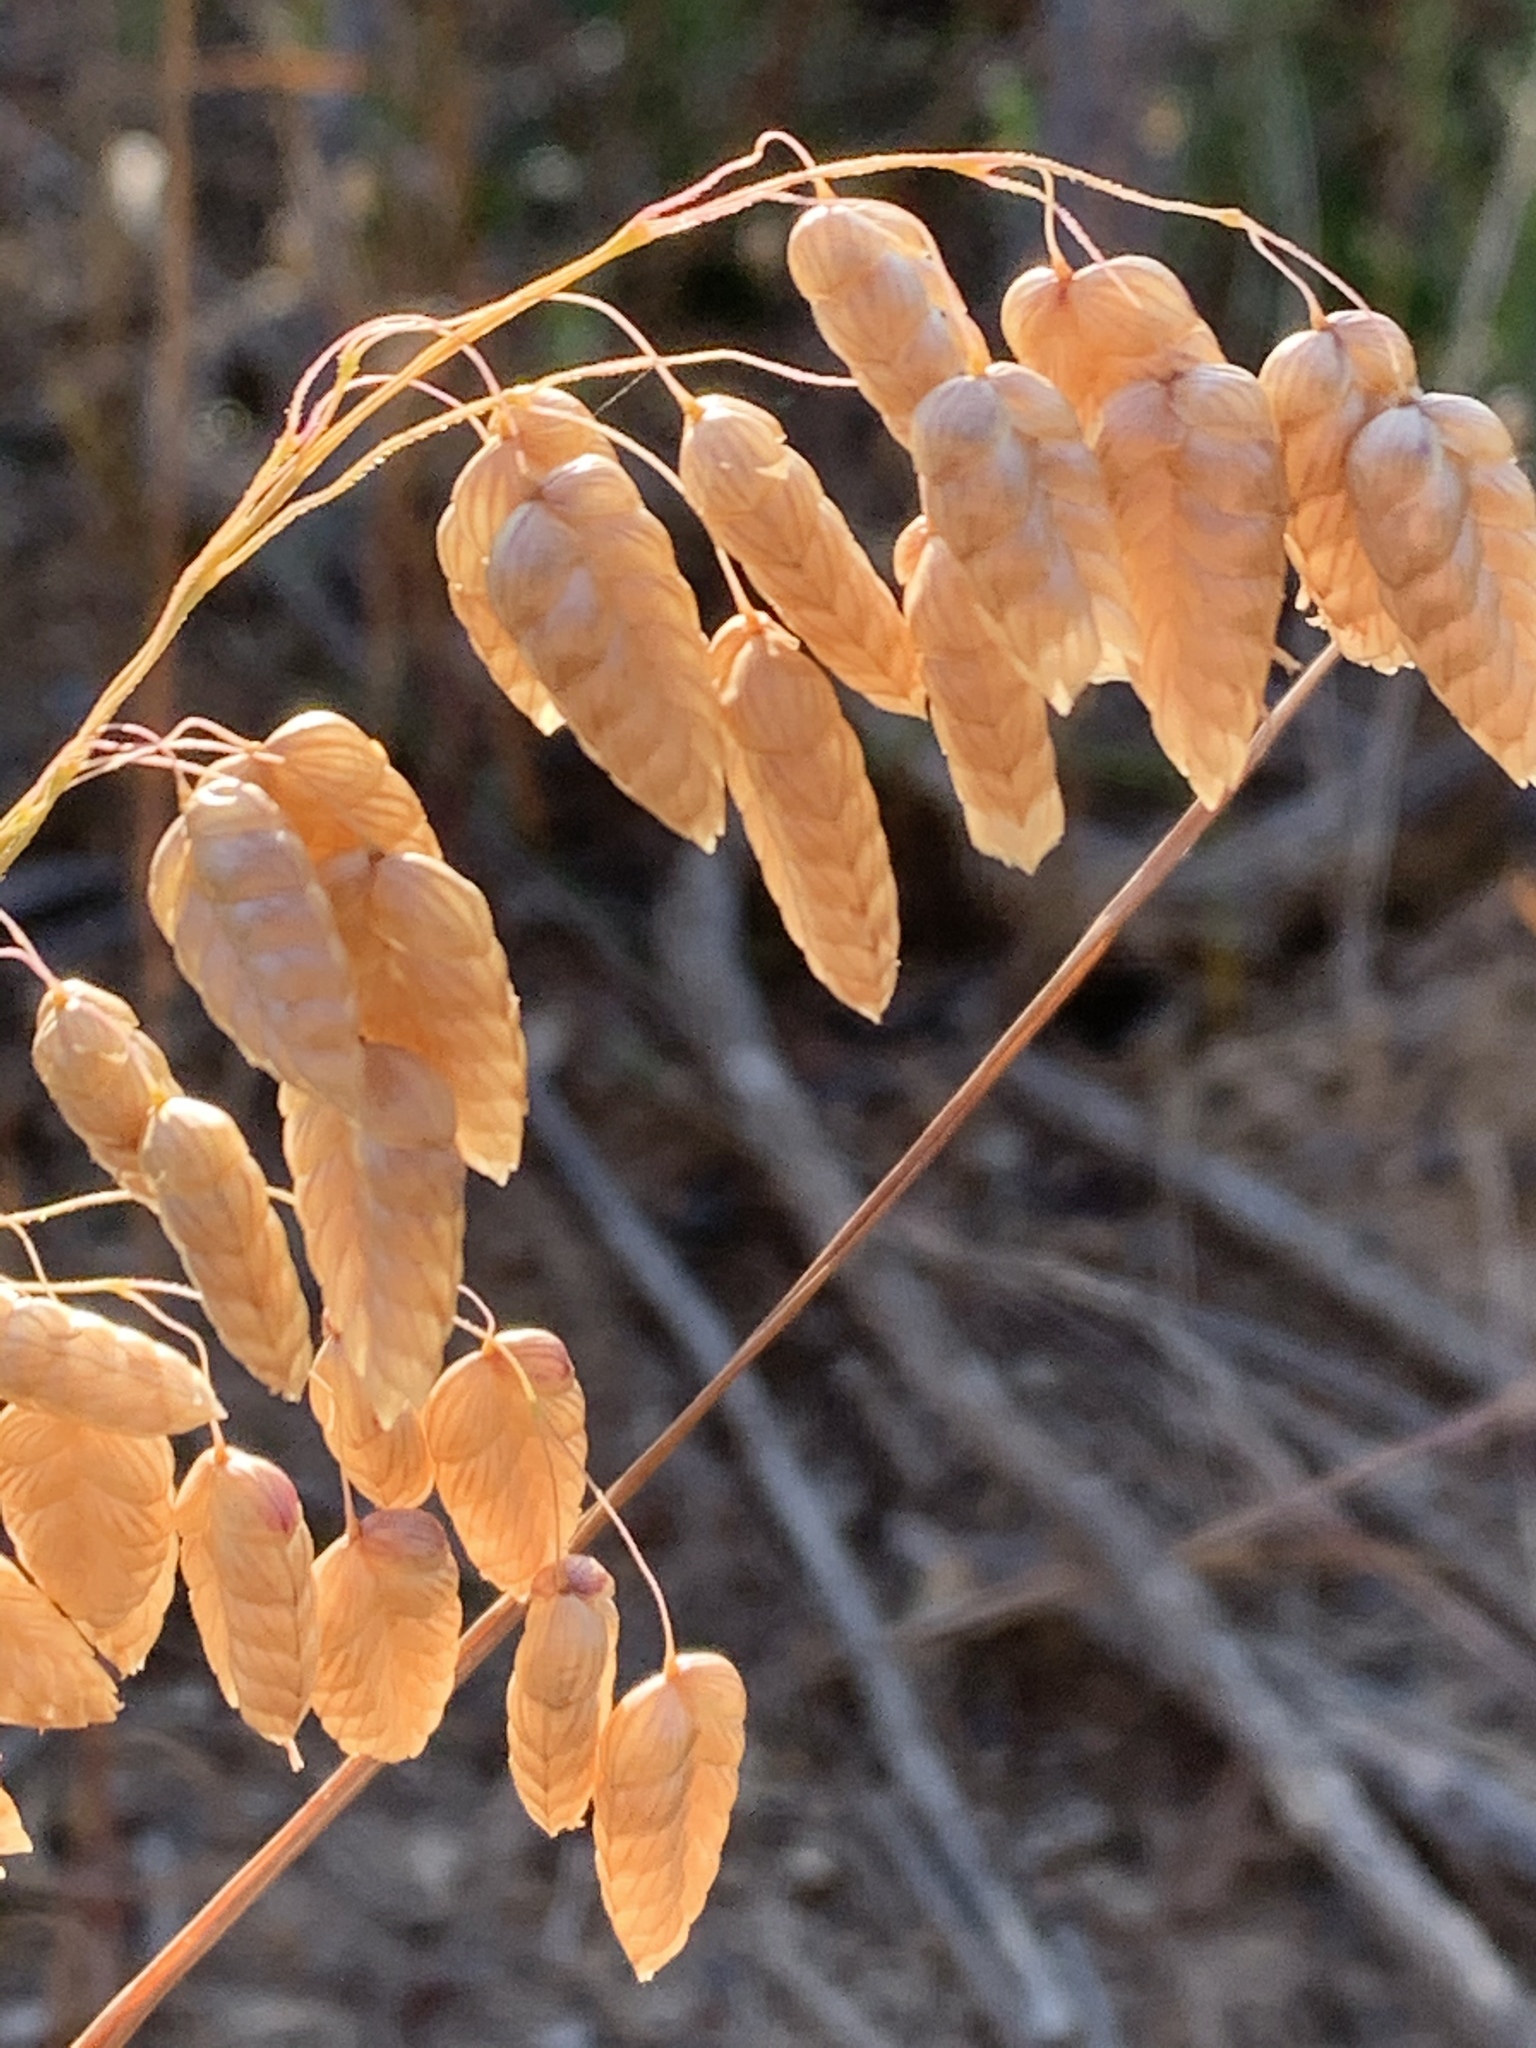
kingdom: Plantae
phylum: Tracheophyta
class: Liliopsida
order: Poales
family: Poaceae
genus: Briza
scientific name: Briza maxima
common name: Big quakinggrass
